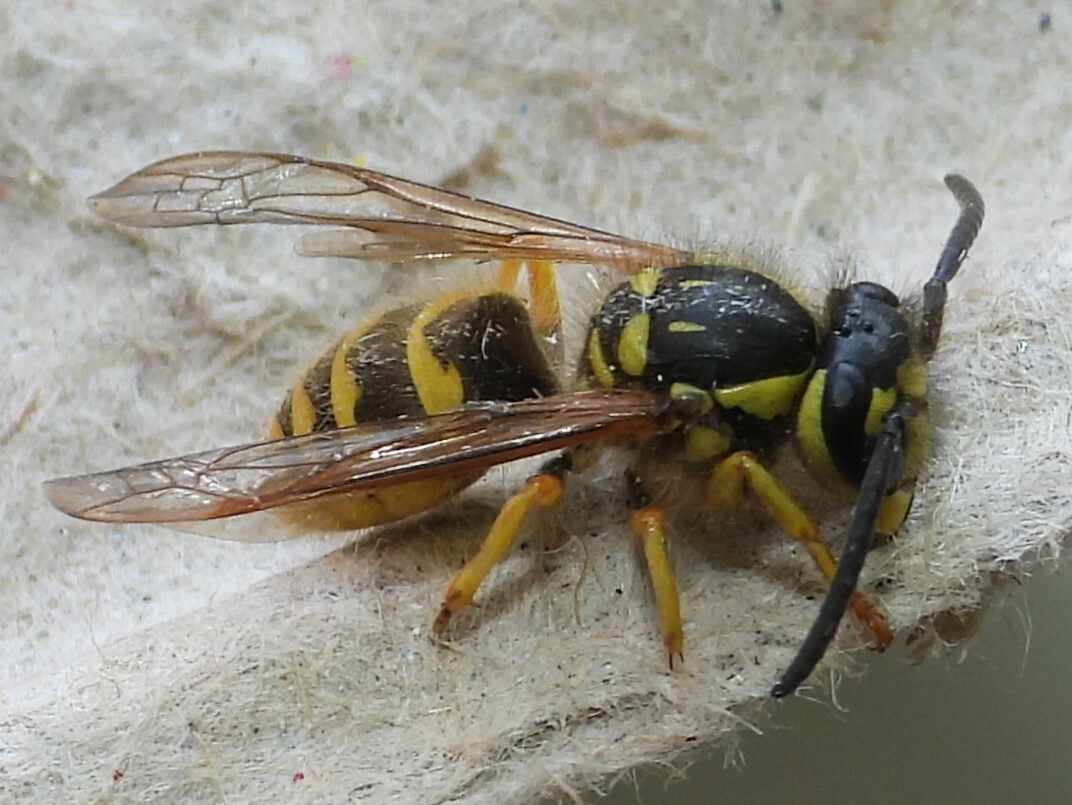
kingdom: Animalia
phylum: Arthropoda
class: Insecta
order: Hymenoptera
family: Vespidae
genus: Vespula
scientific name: Vespula flavopilosa
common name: Downy yellowjacket
